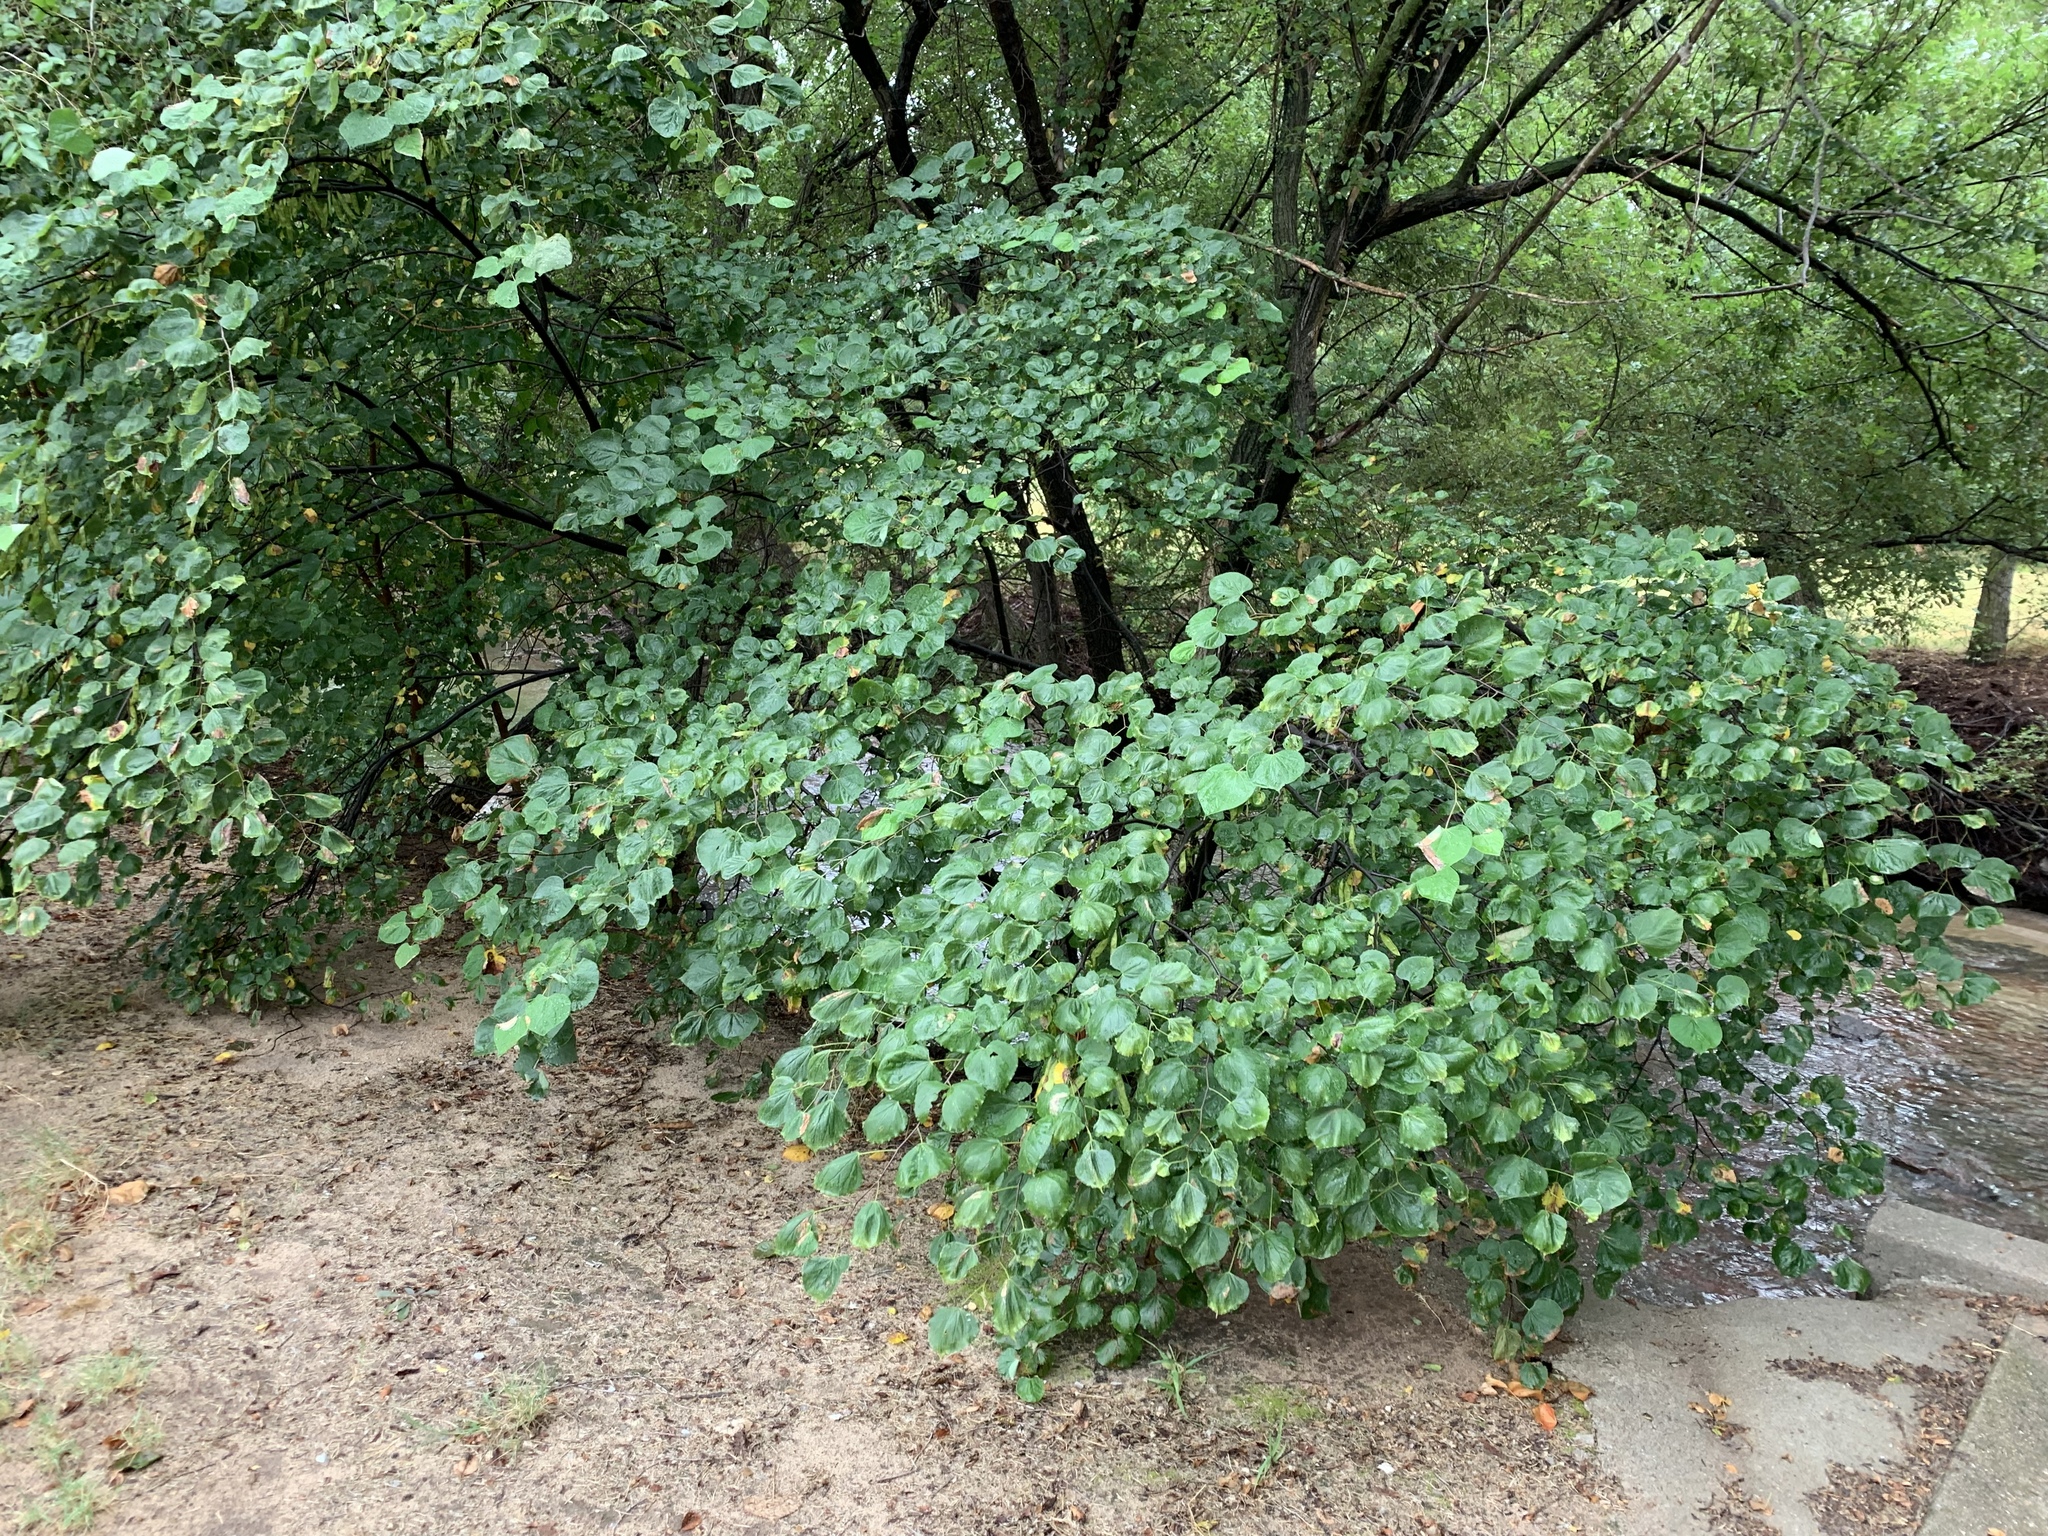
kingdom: Plantae
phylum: Tracheophyta
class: Magnoliopsida
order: Fabales
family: Fabaceae
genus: Cercis
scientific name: Cercis canadensis
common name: Eastern redbud
